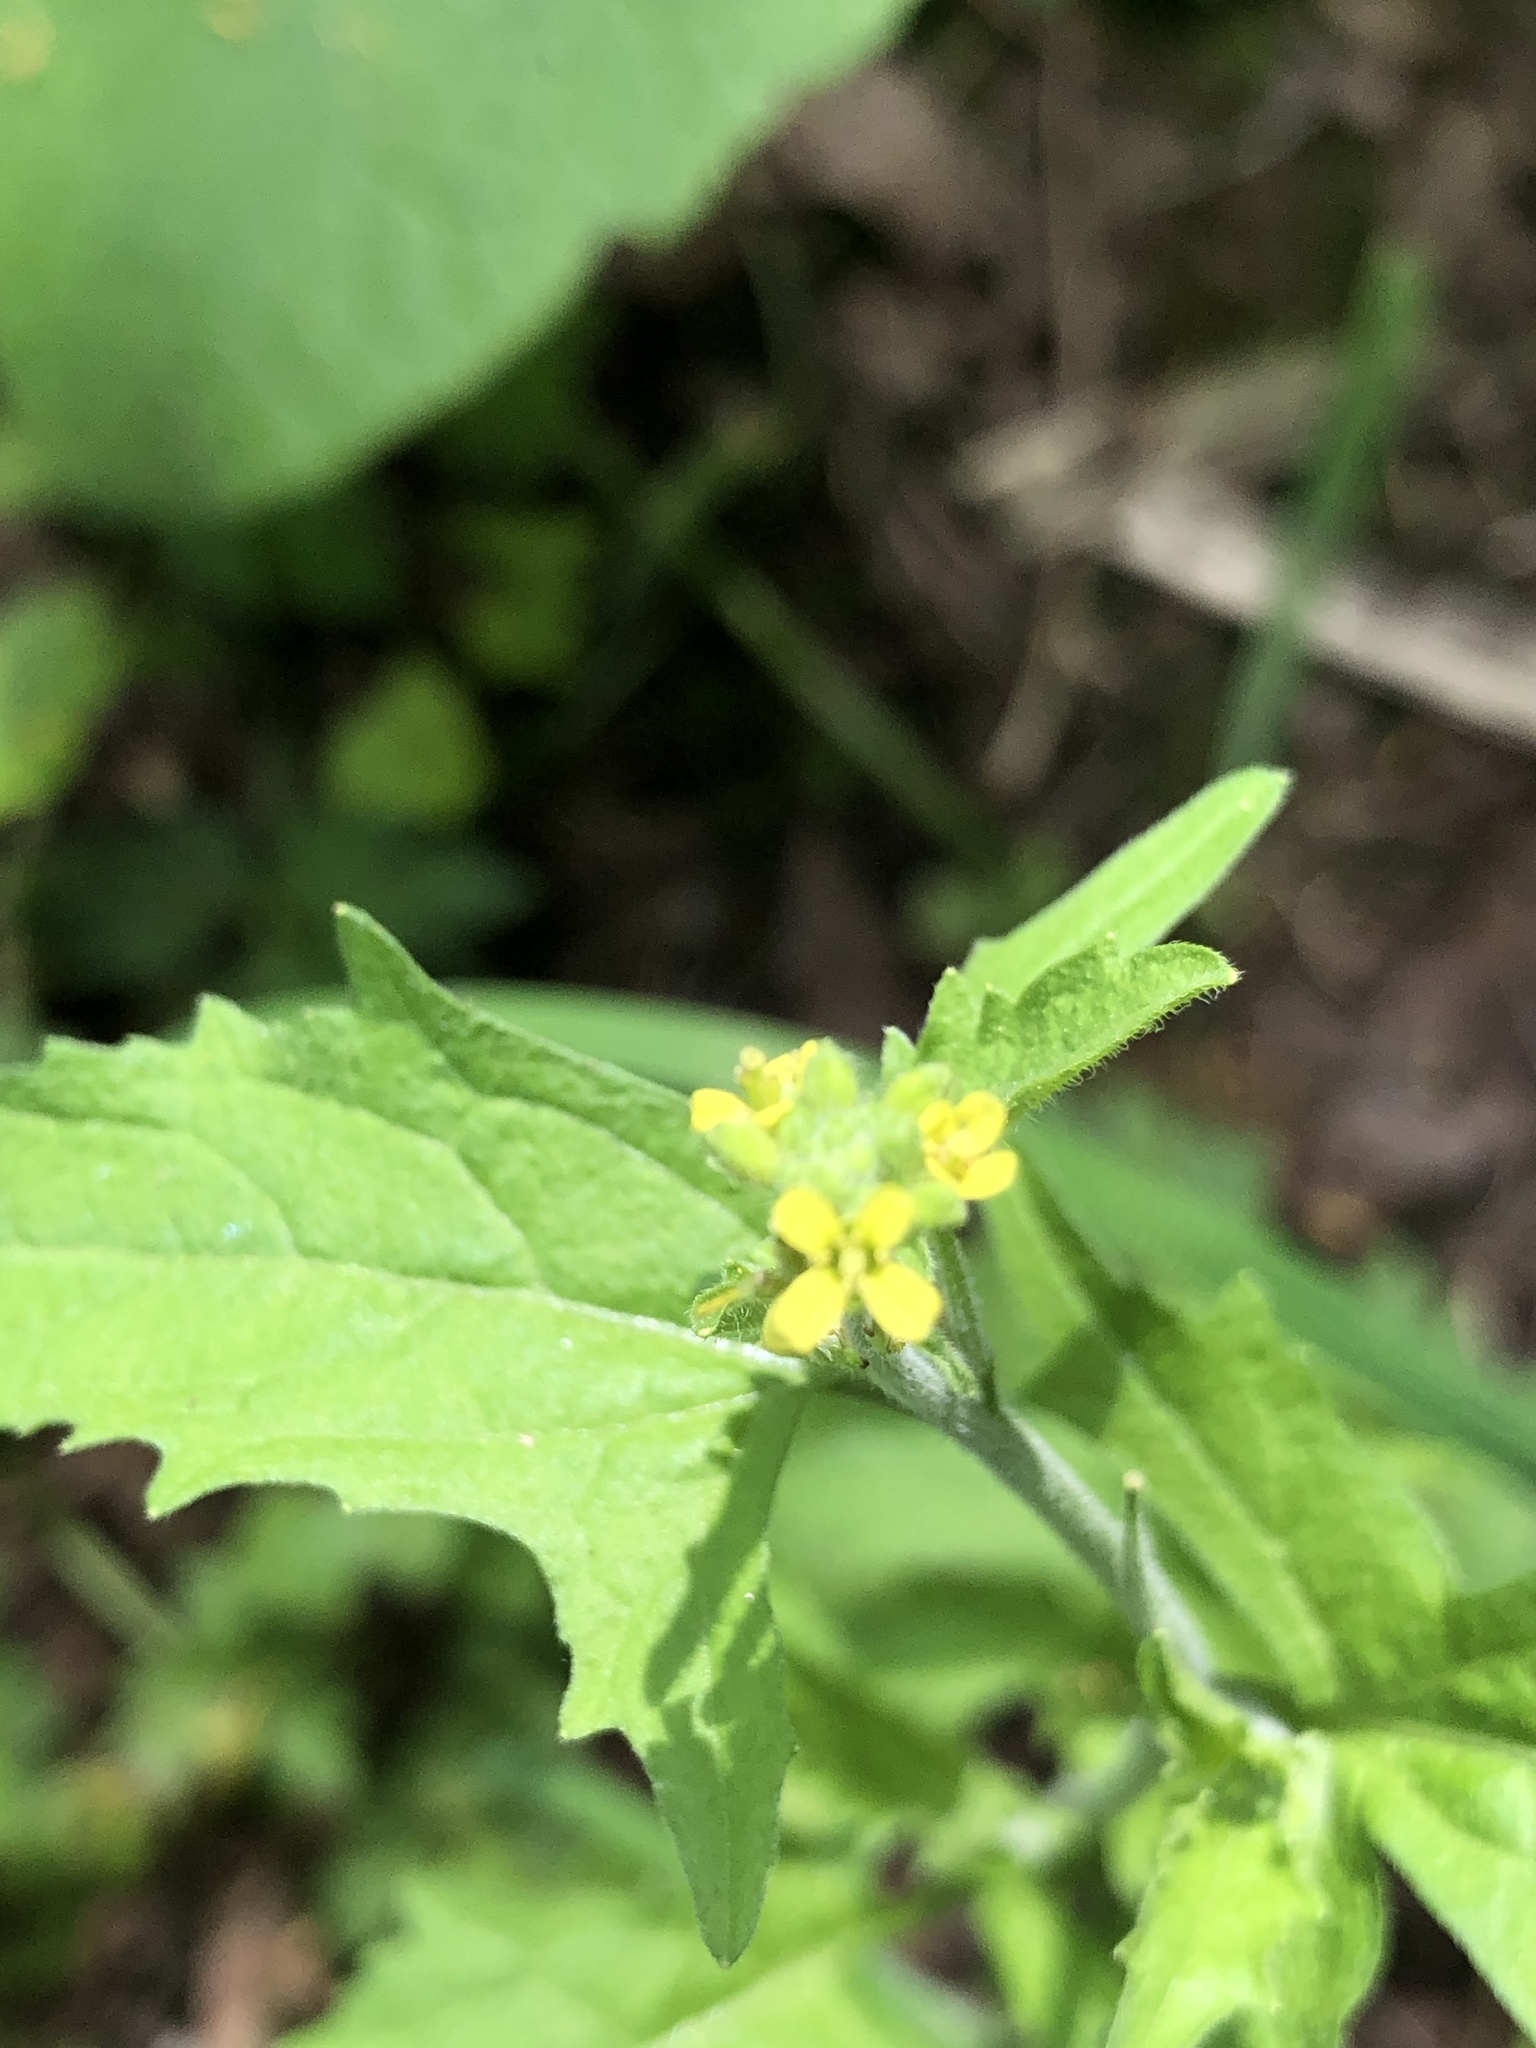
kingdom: Plantae
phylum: Tracheophyta
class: Magnoliopsida
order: Brassicales
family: Brassicaceae
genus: Sisymbrium
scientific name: Sisymbrium officinale
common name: Hedge mustard
